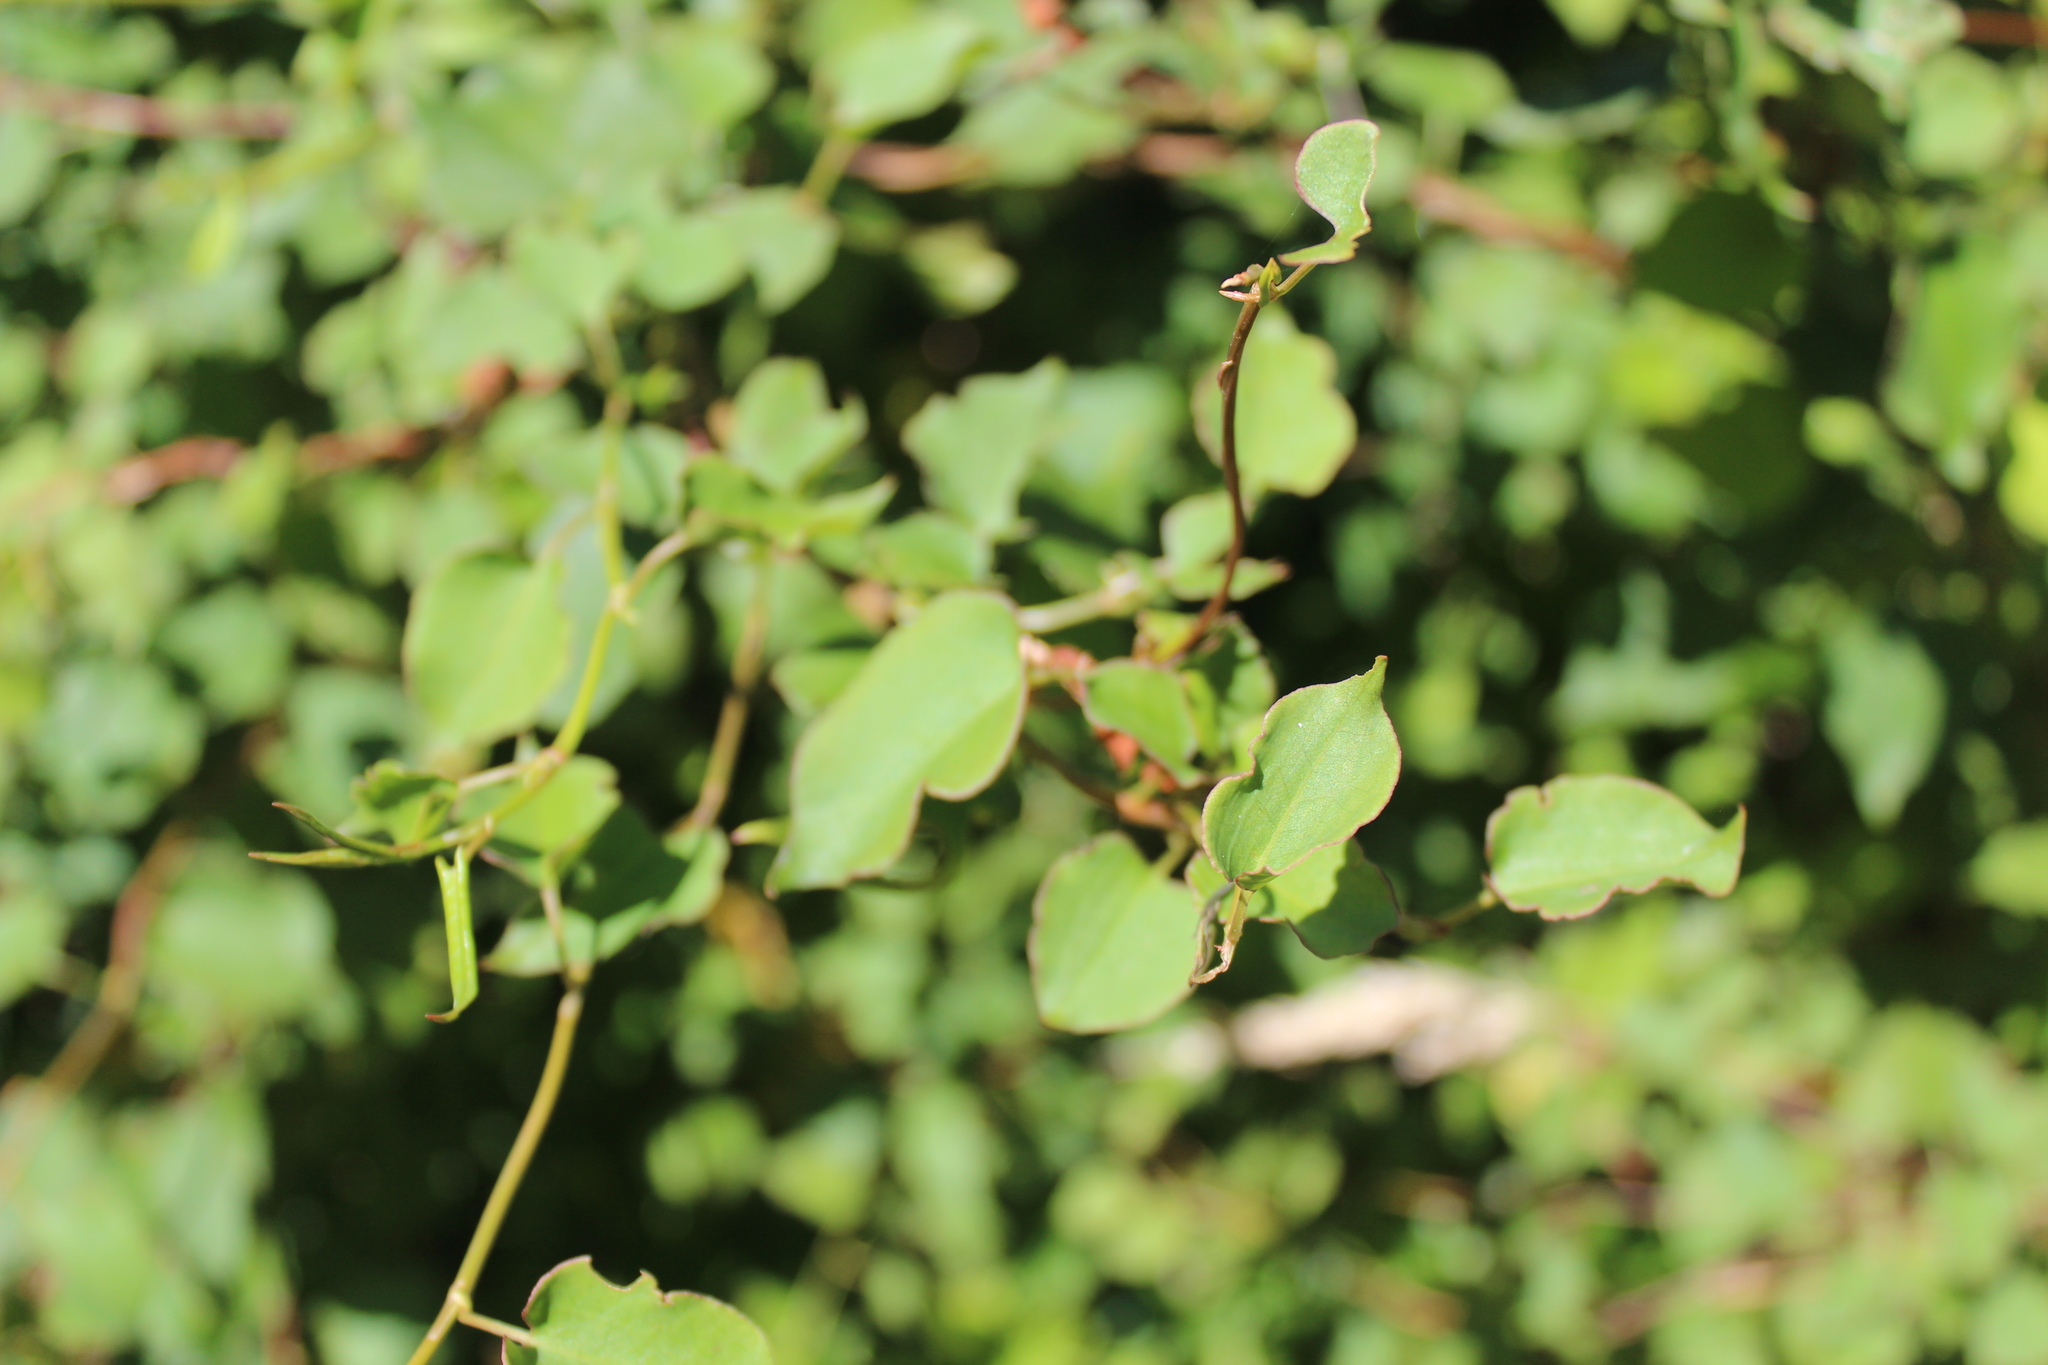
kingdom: Plantae
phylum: Tracheophyta
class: Magnoliopsida
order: Caryophyllales
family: Polygonaceae
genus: Muehlenbeckia
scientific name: Muehlenbeckia australis
